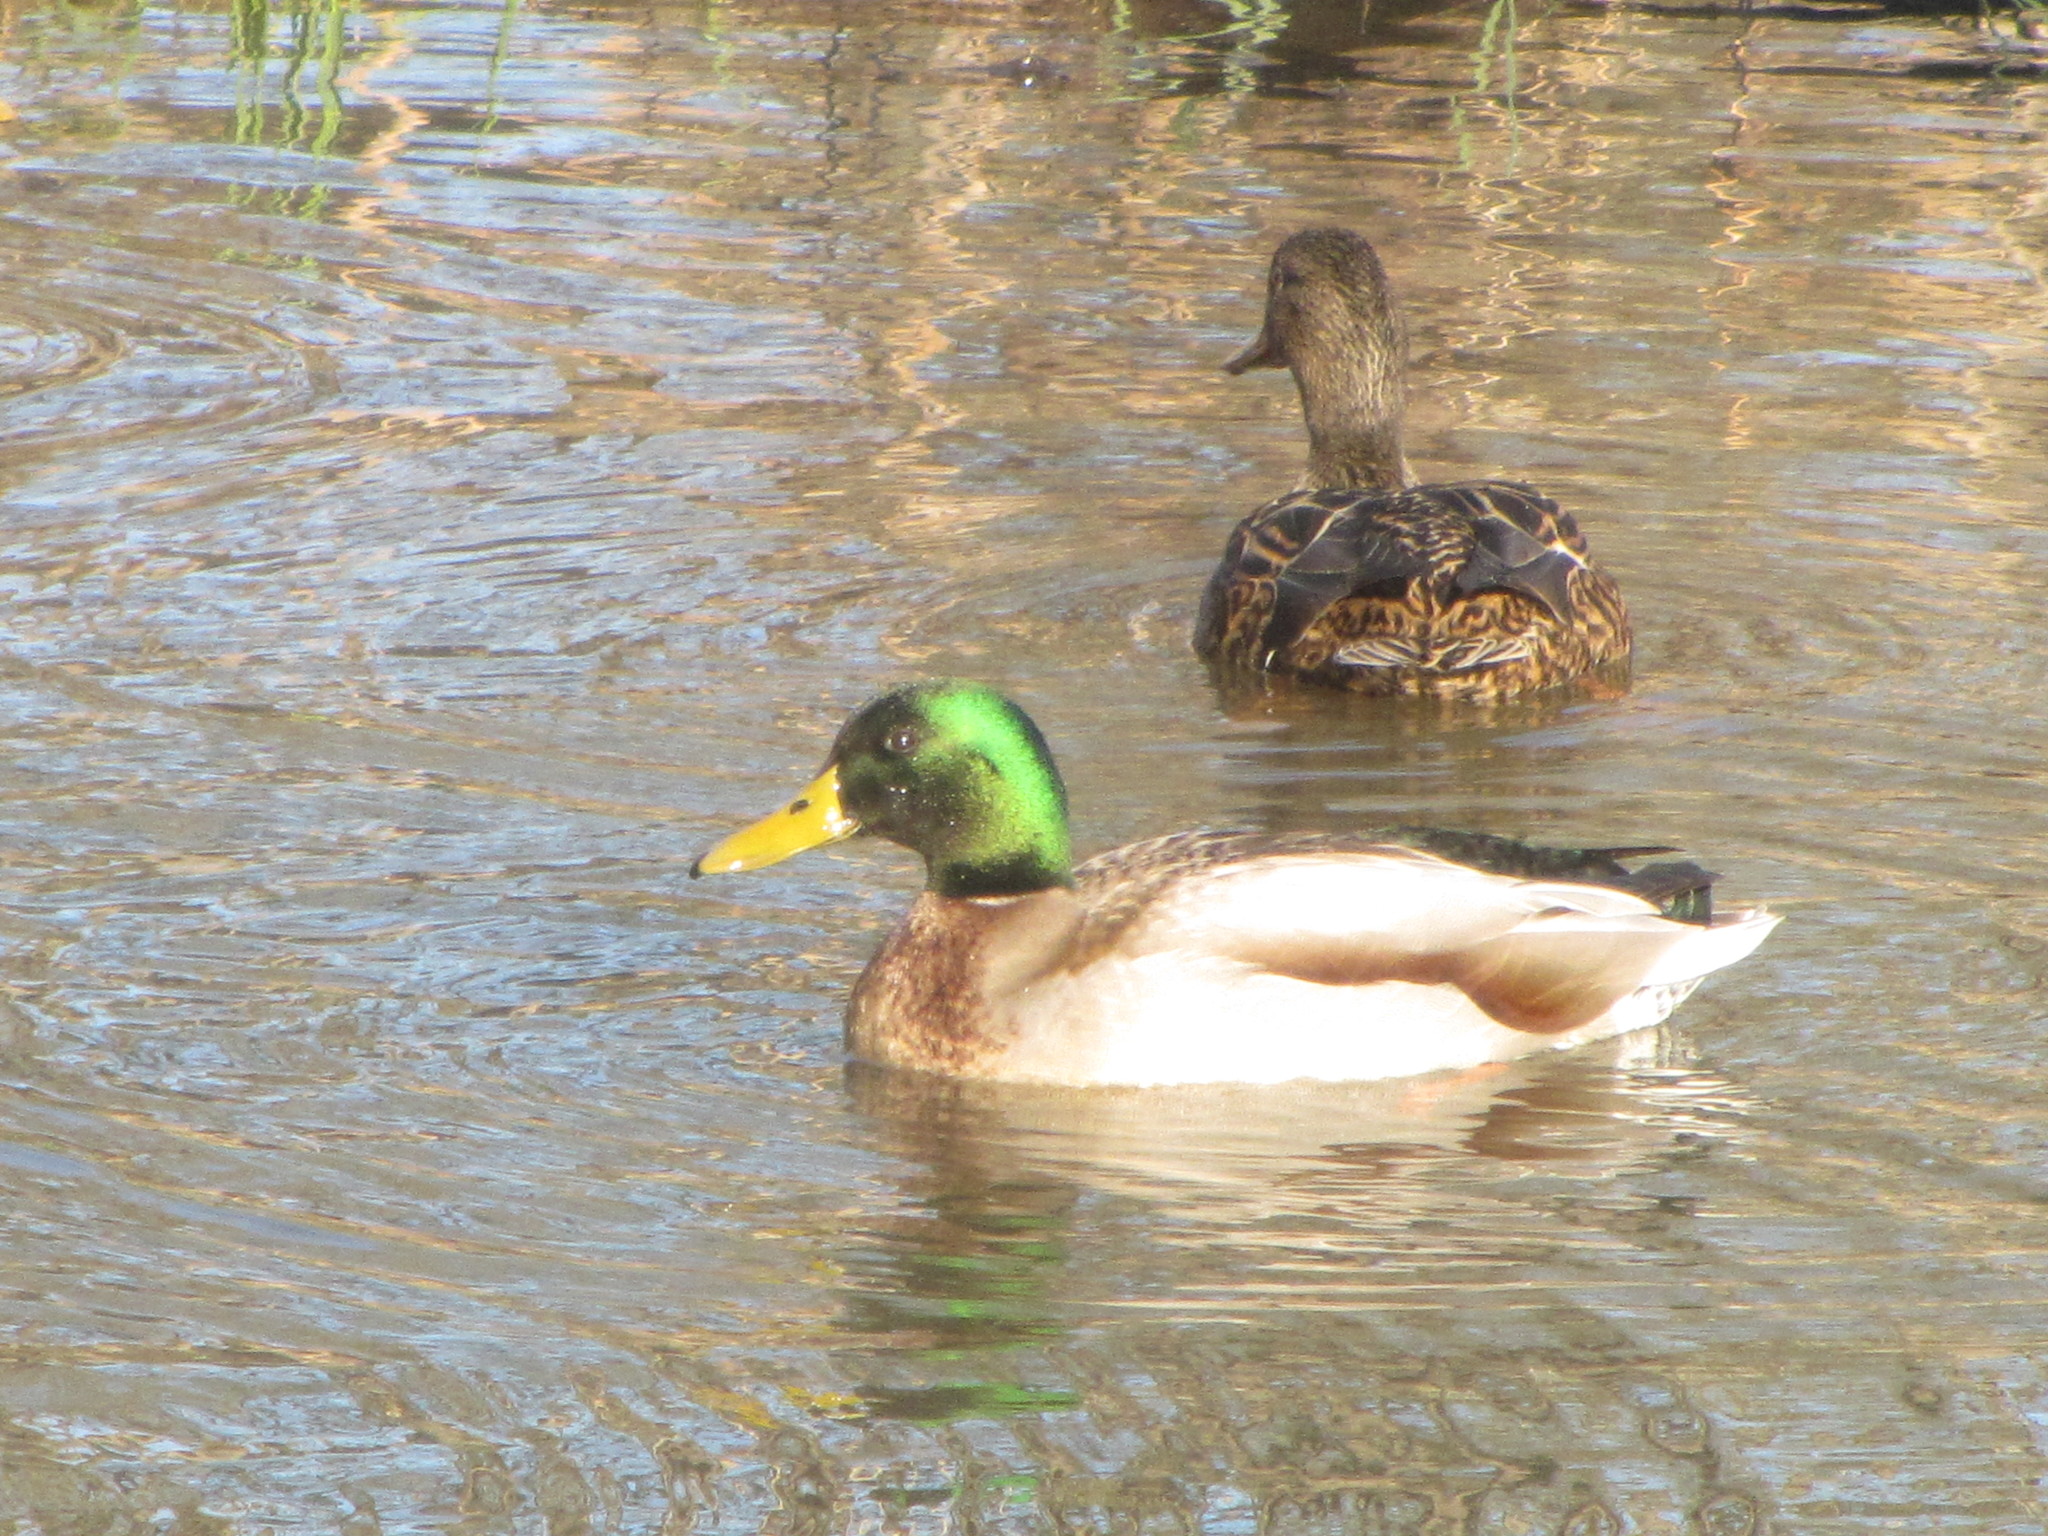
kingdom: Animalia
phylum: Chordata
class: Aves
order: Anseriformes
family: Anatidae
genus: Anas
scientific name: Anas platyrhynchos
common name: Mallard
